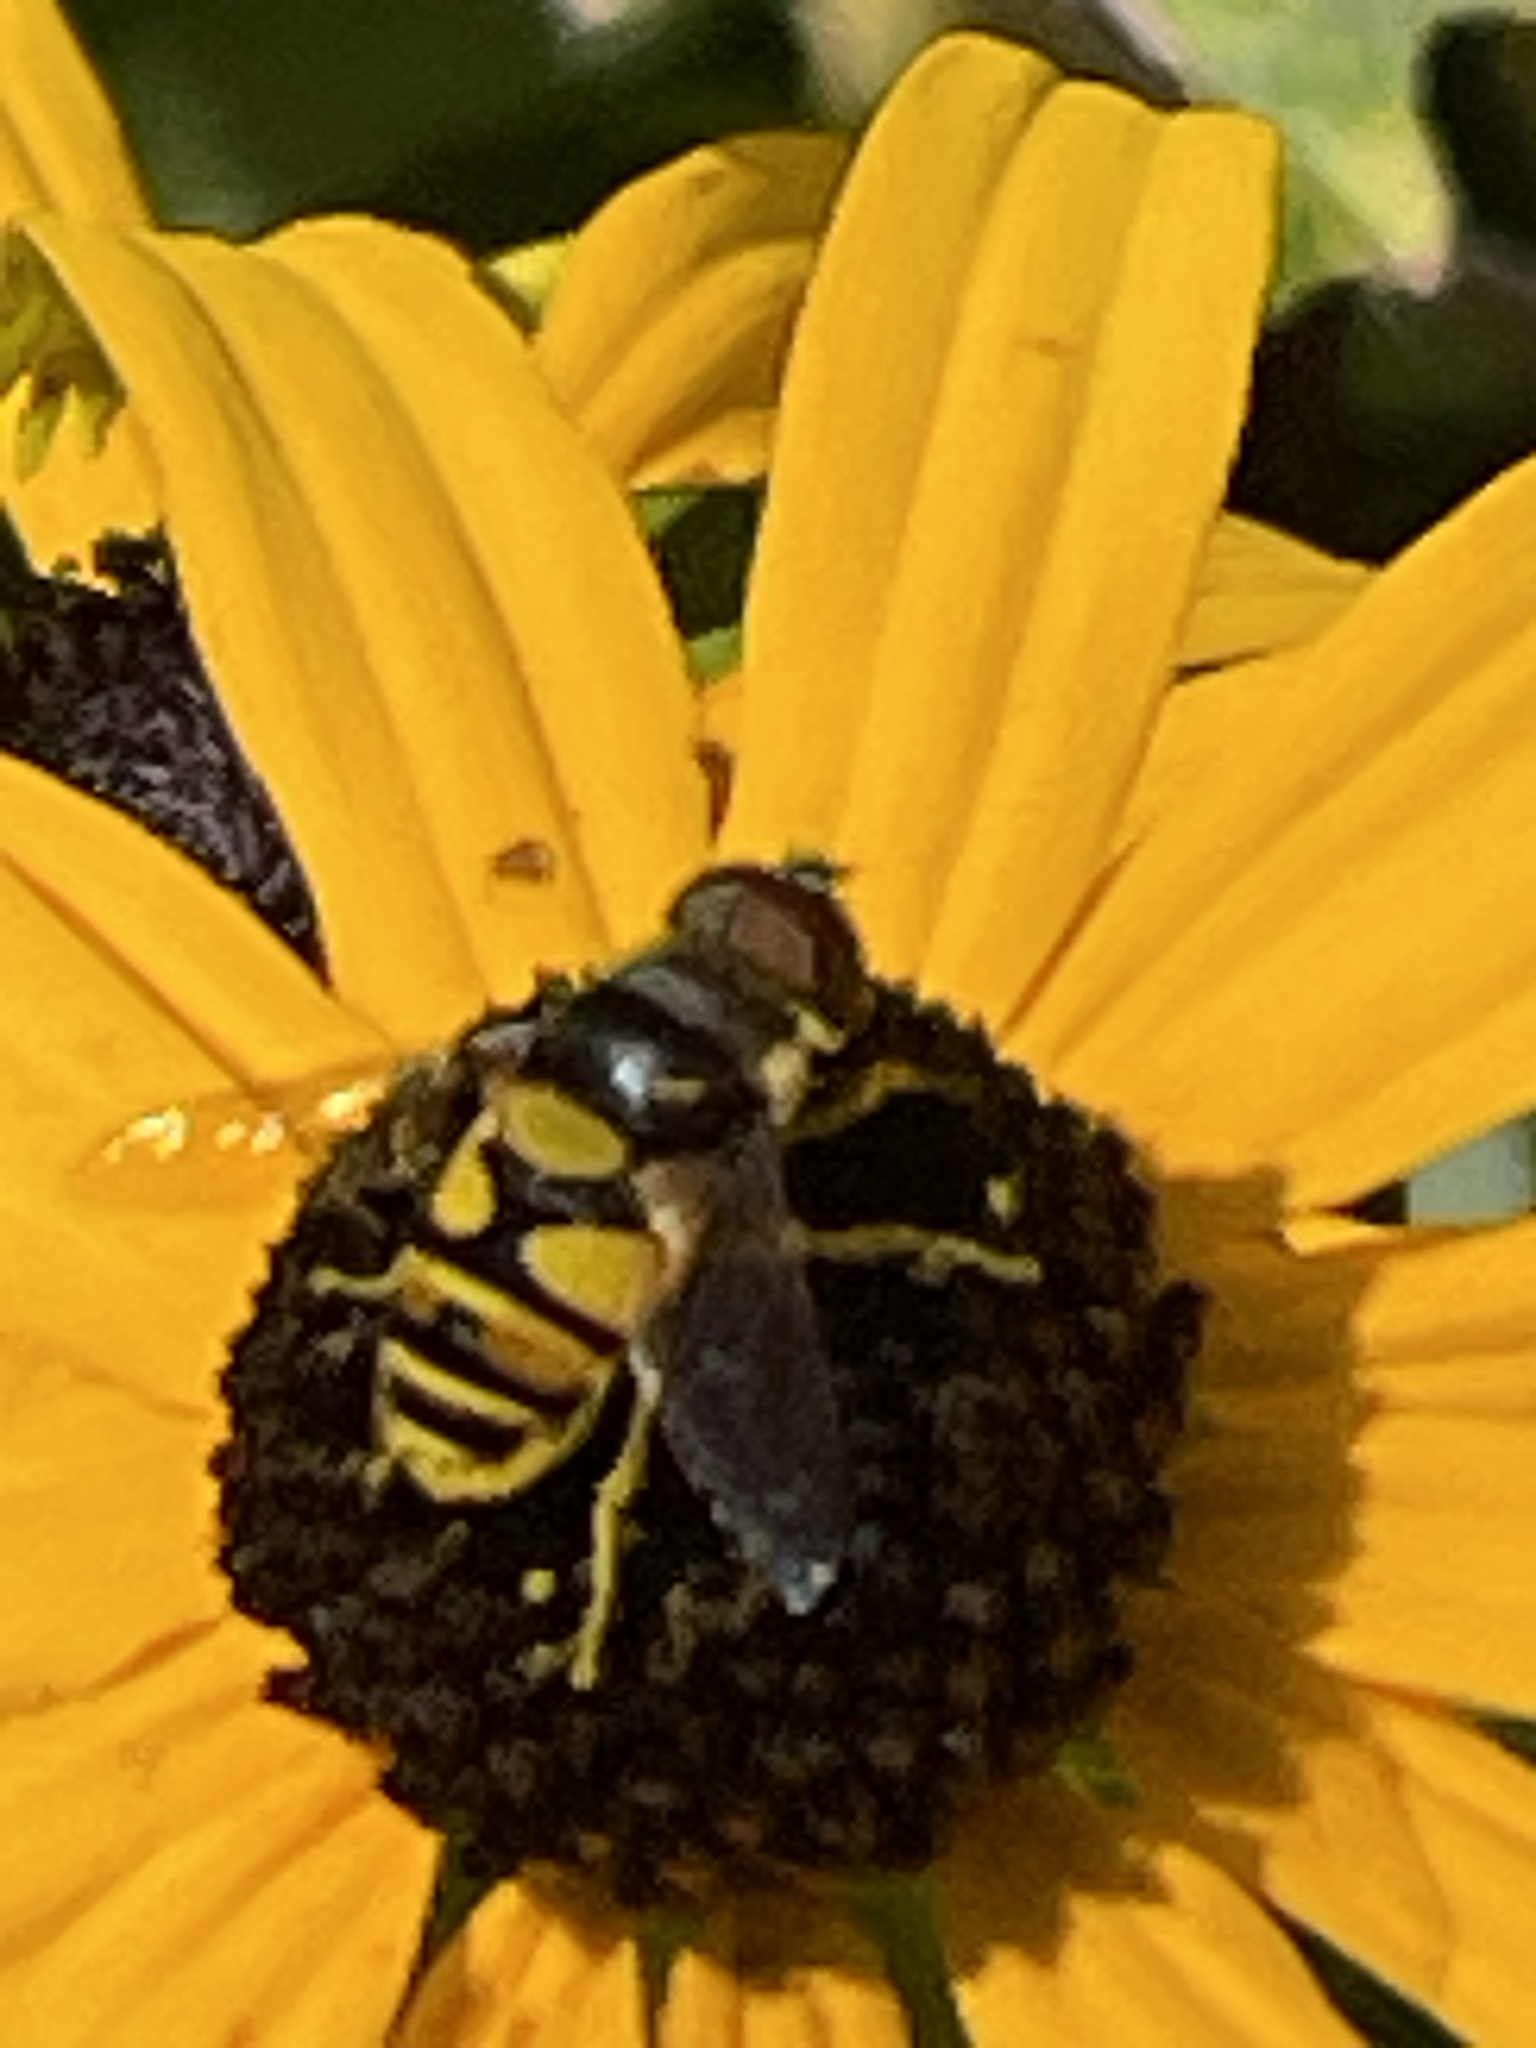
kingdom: Animalia
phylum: Arthropoda
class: Insecta
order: Diptera
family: Syrphidae
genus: Eristalis
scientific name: Eristalis transversa
